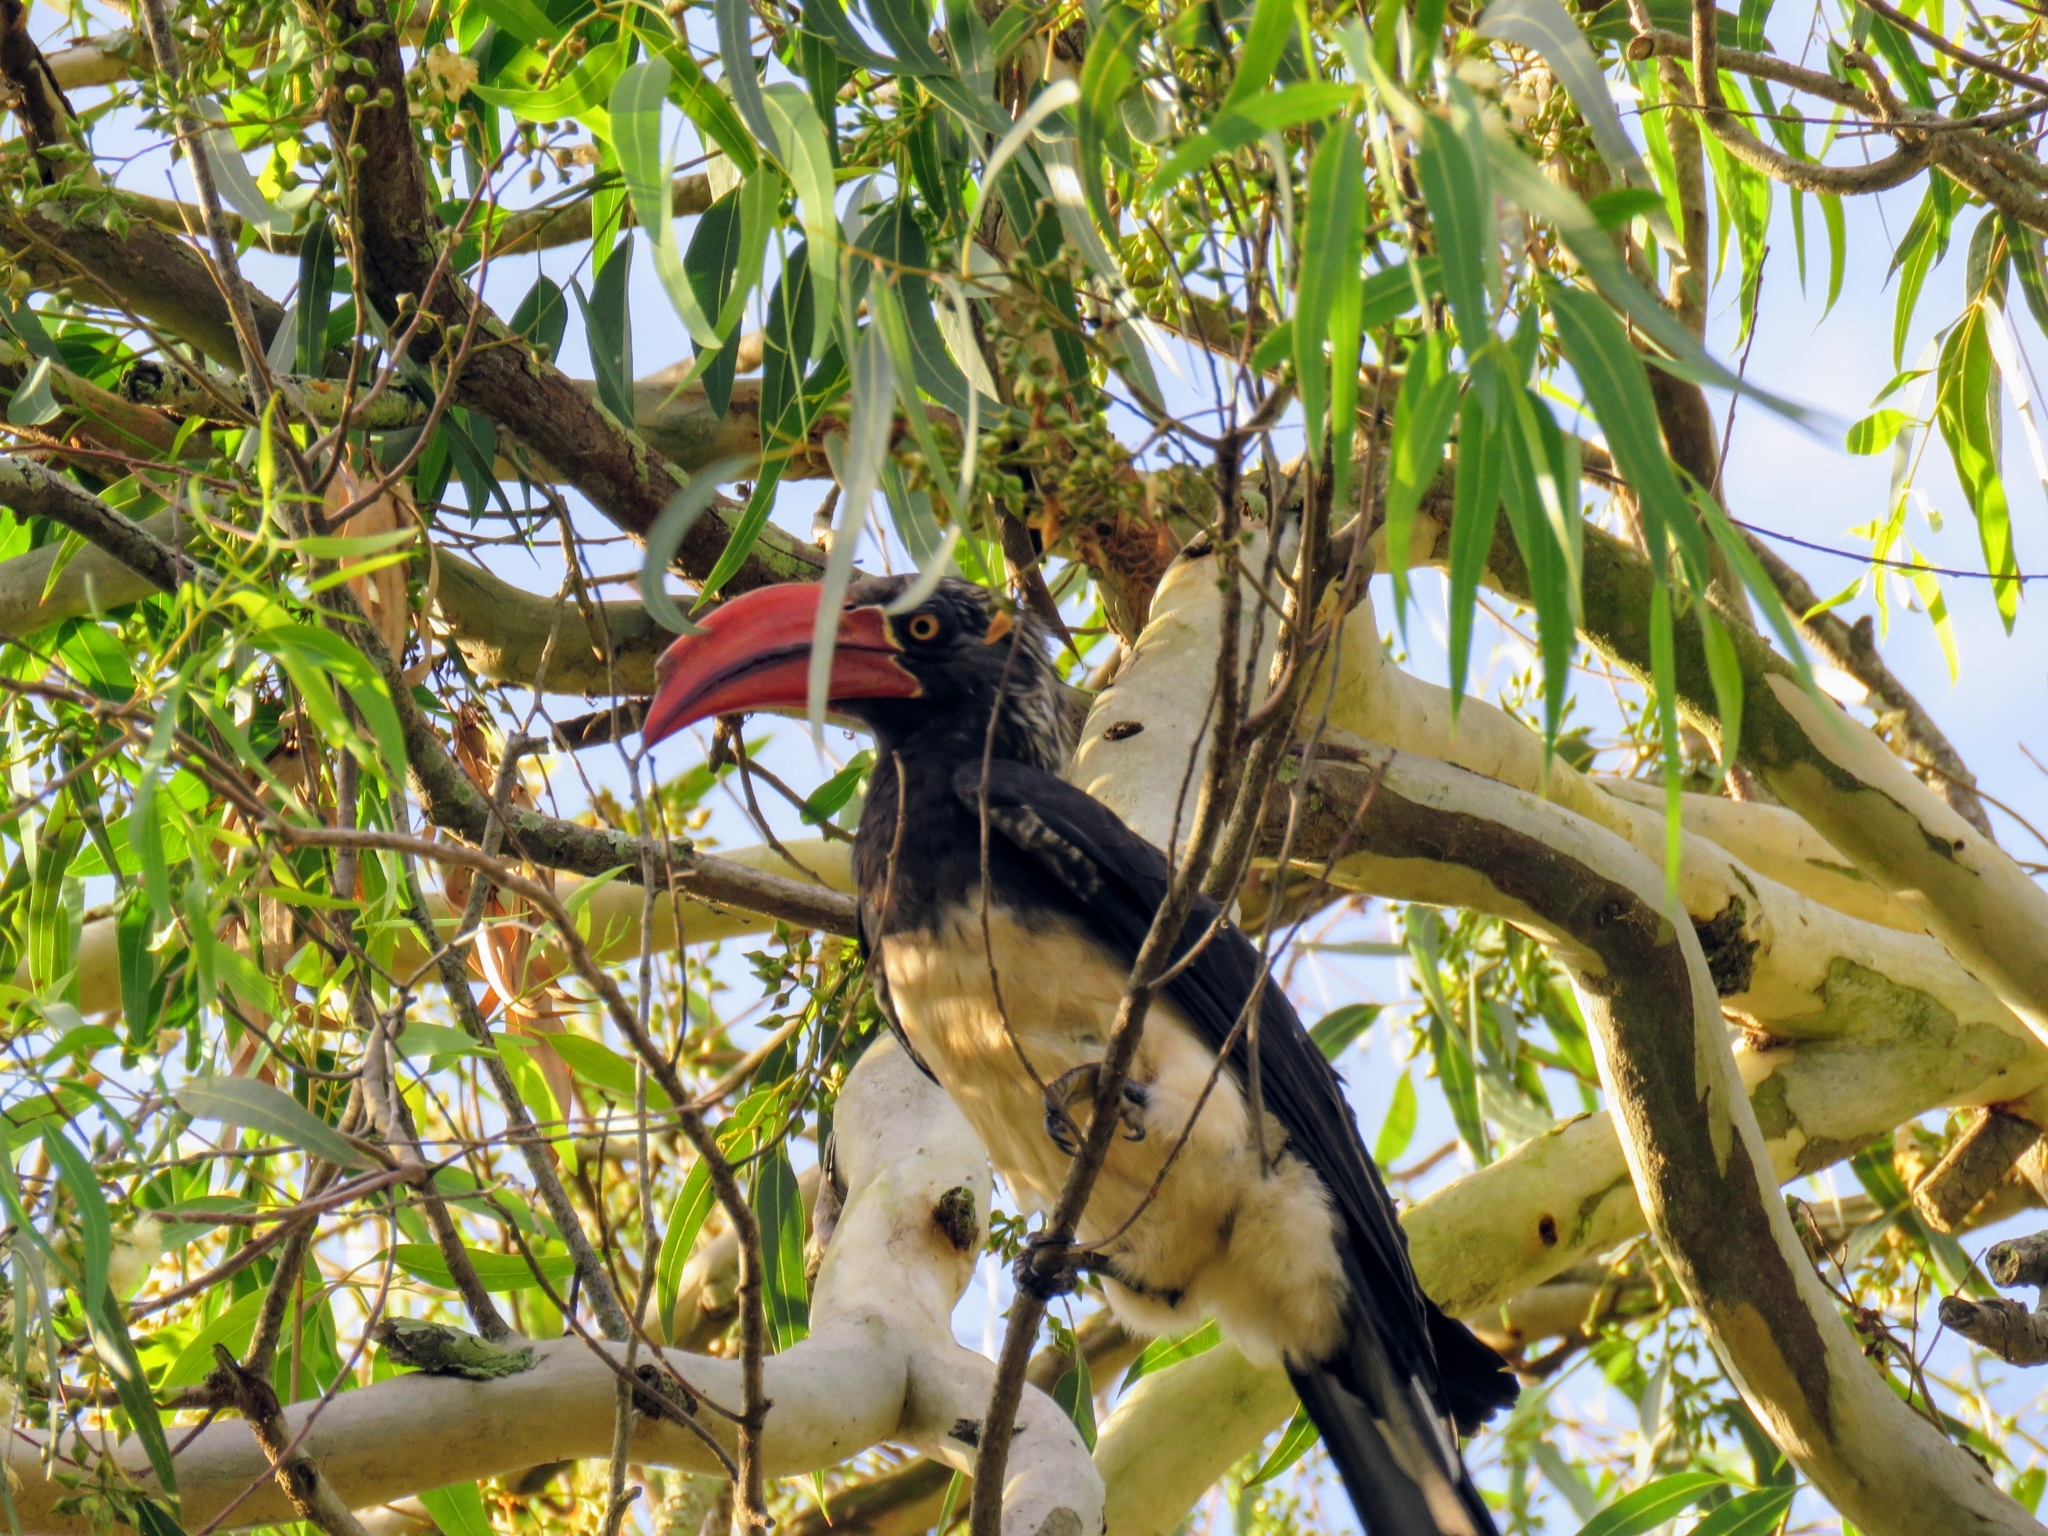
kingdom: Animalia
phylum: Chordata
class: Aves
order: Bucerotiformes
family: Bucerotidae
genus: Lophoceros
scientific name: Lophoceros alboterminatus
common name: Crowned hornbill
